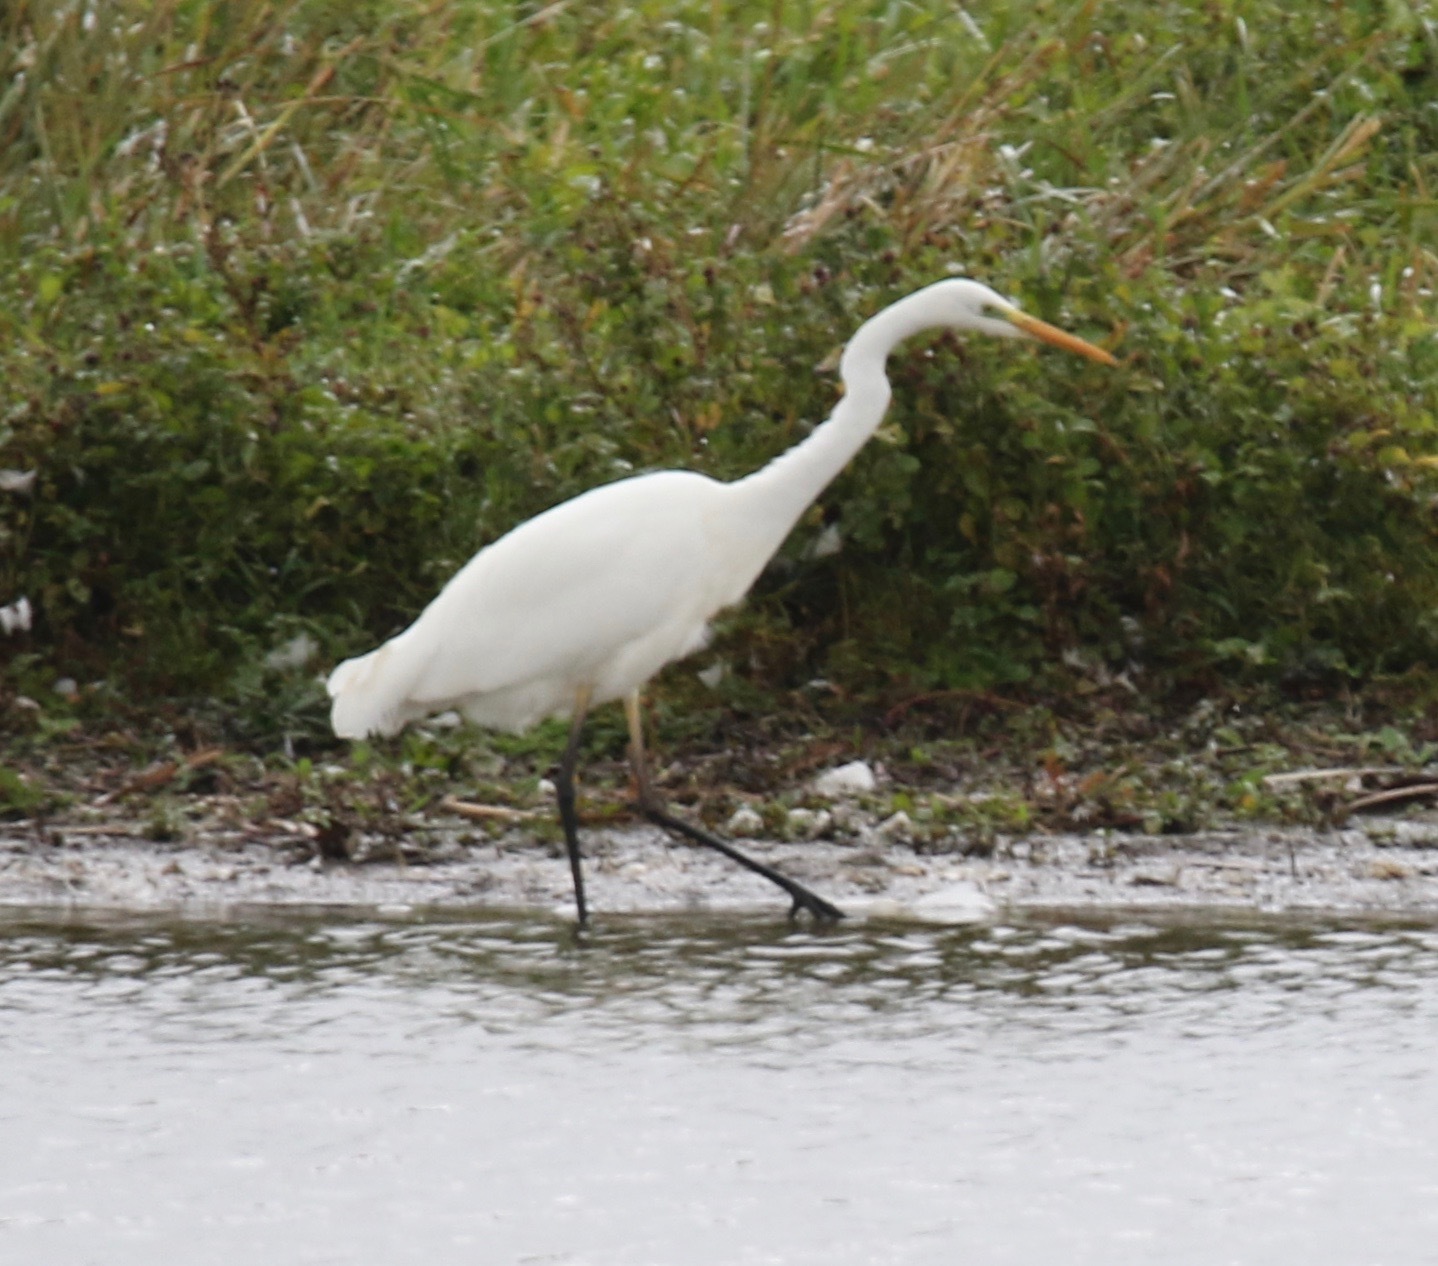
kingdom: Animalia
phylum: Chordata
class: Aves
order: Pelecaniformes
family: Ardeidae
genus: Ardea
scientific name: Ardea alba
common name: Great egret
